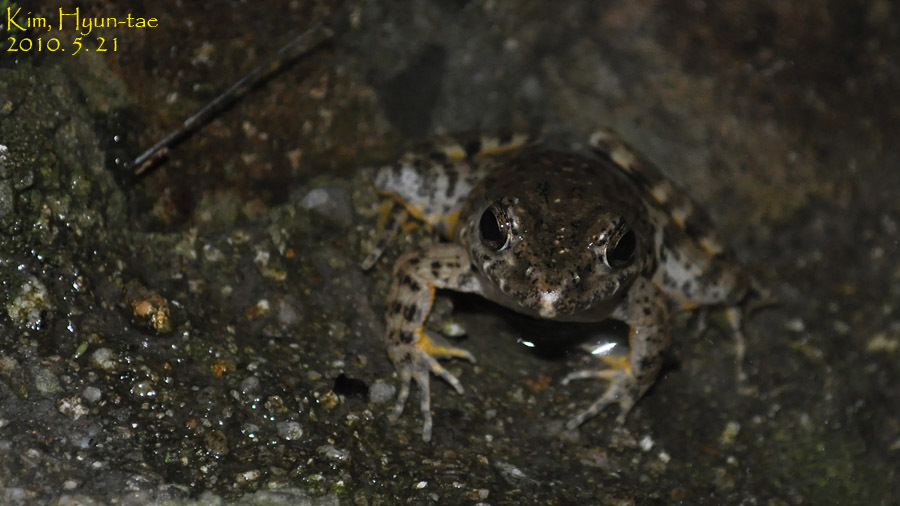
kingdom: Animalia
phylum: Chordata
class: Amphibia
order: Anura
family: Ranidae
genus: Glandirana
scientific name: Glandirana emeljanovi
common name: Northeast china rough-skinned frog
